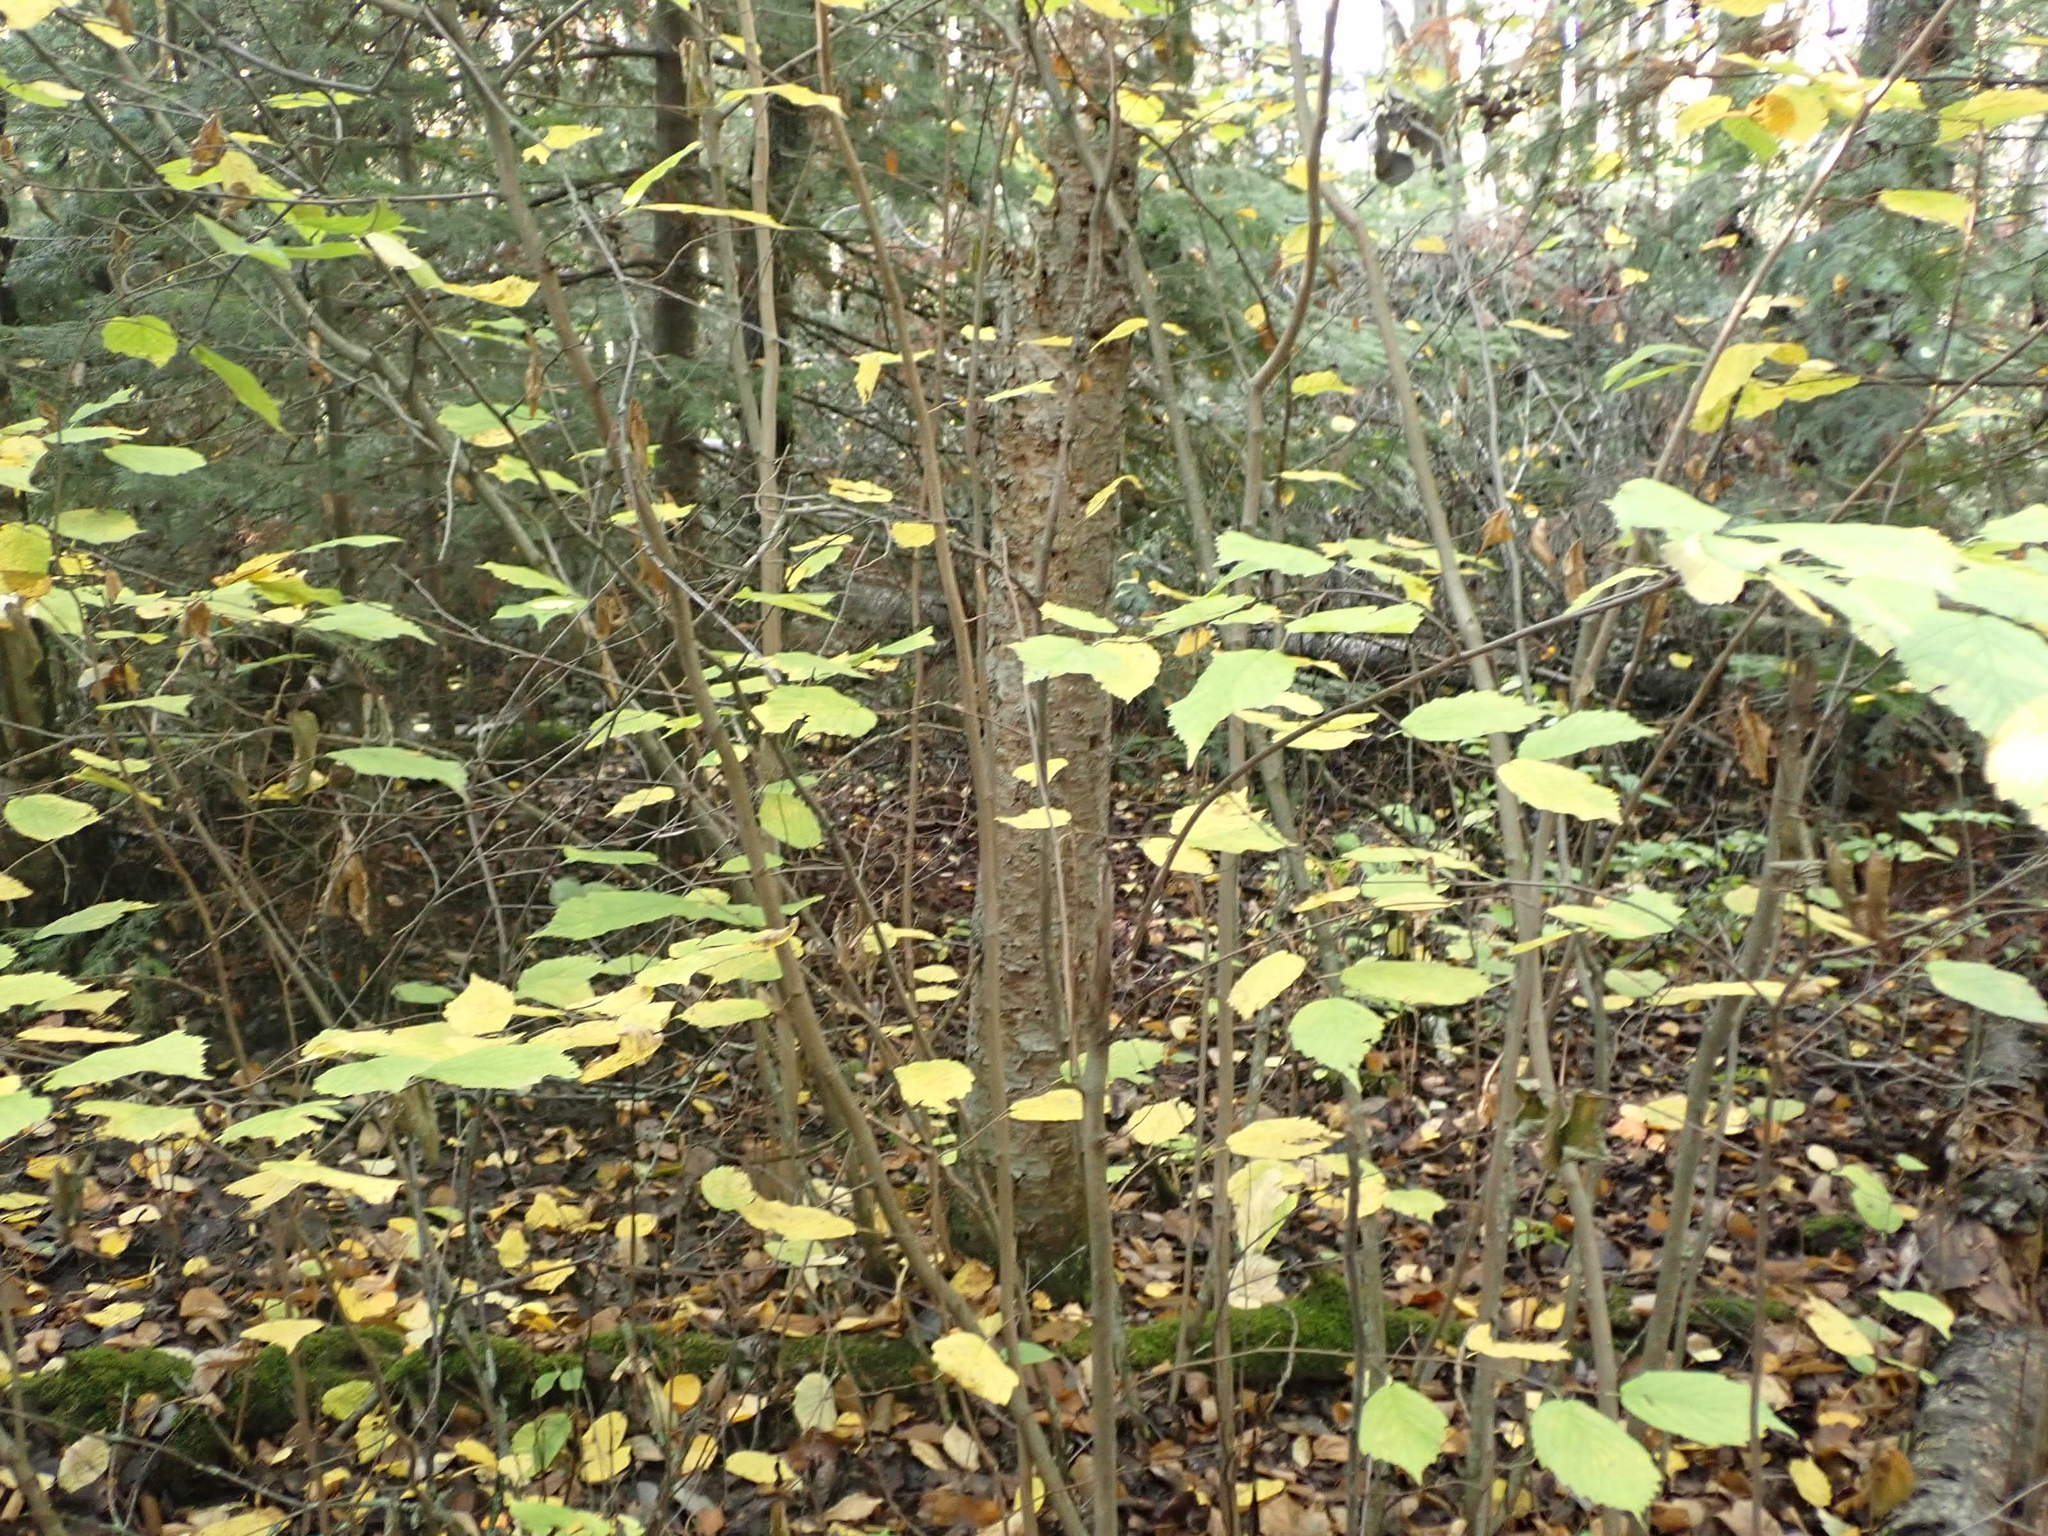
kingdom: Plantae
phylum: Tracheophyta
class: Magnoliopsida
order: Fagales
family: Betulaceae
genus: Corylus
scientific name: Corylus cornuta
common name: Beaked hazel
